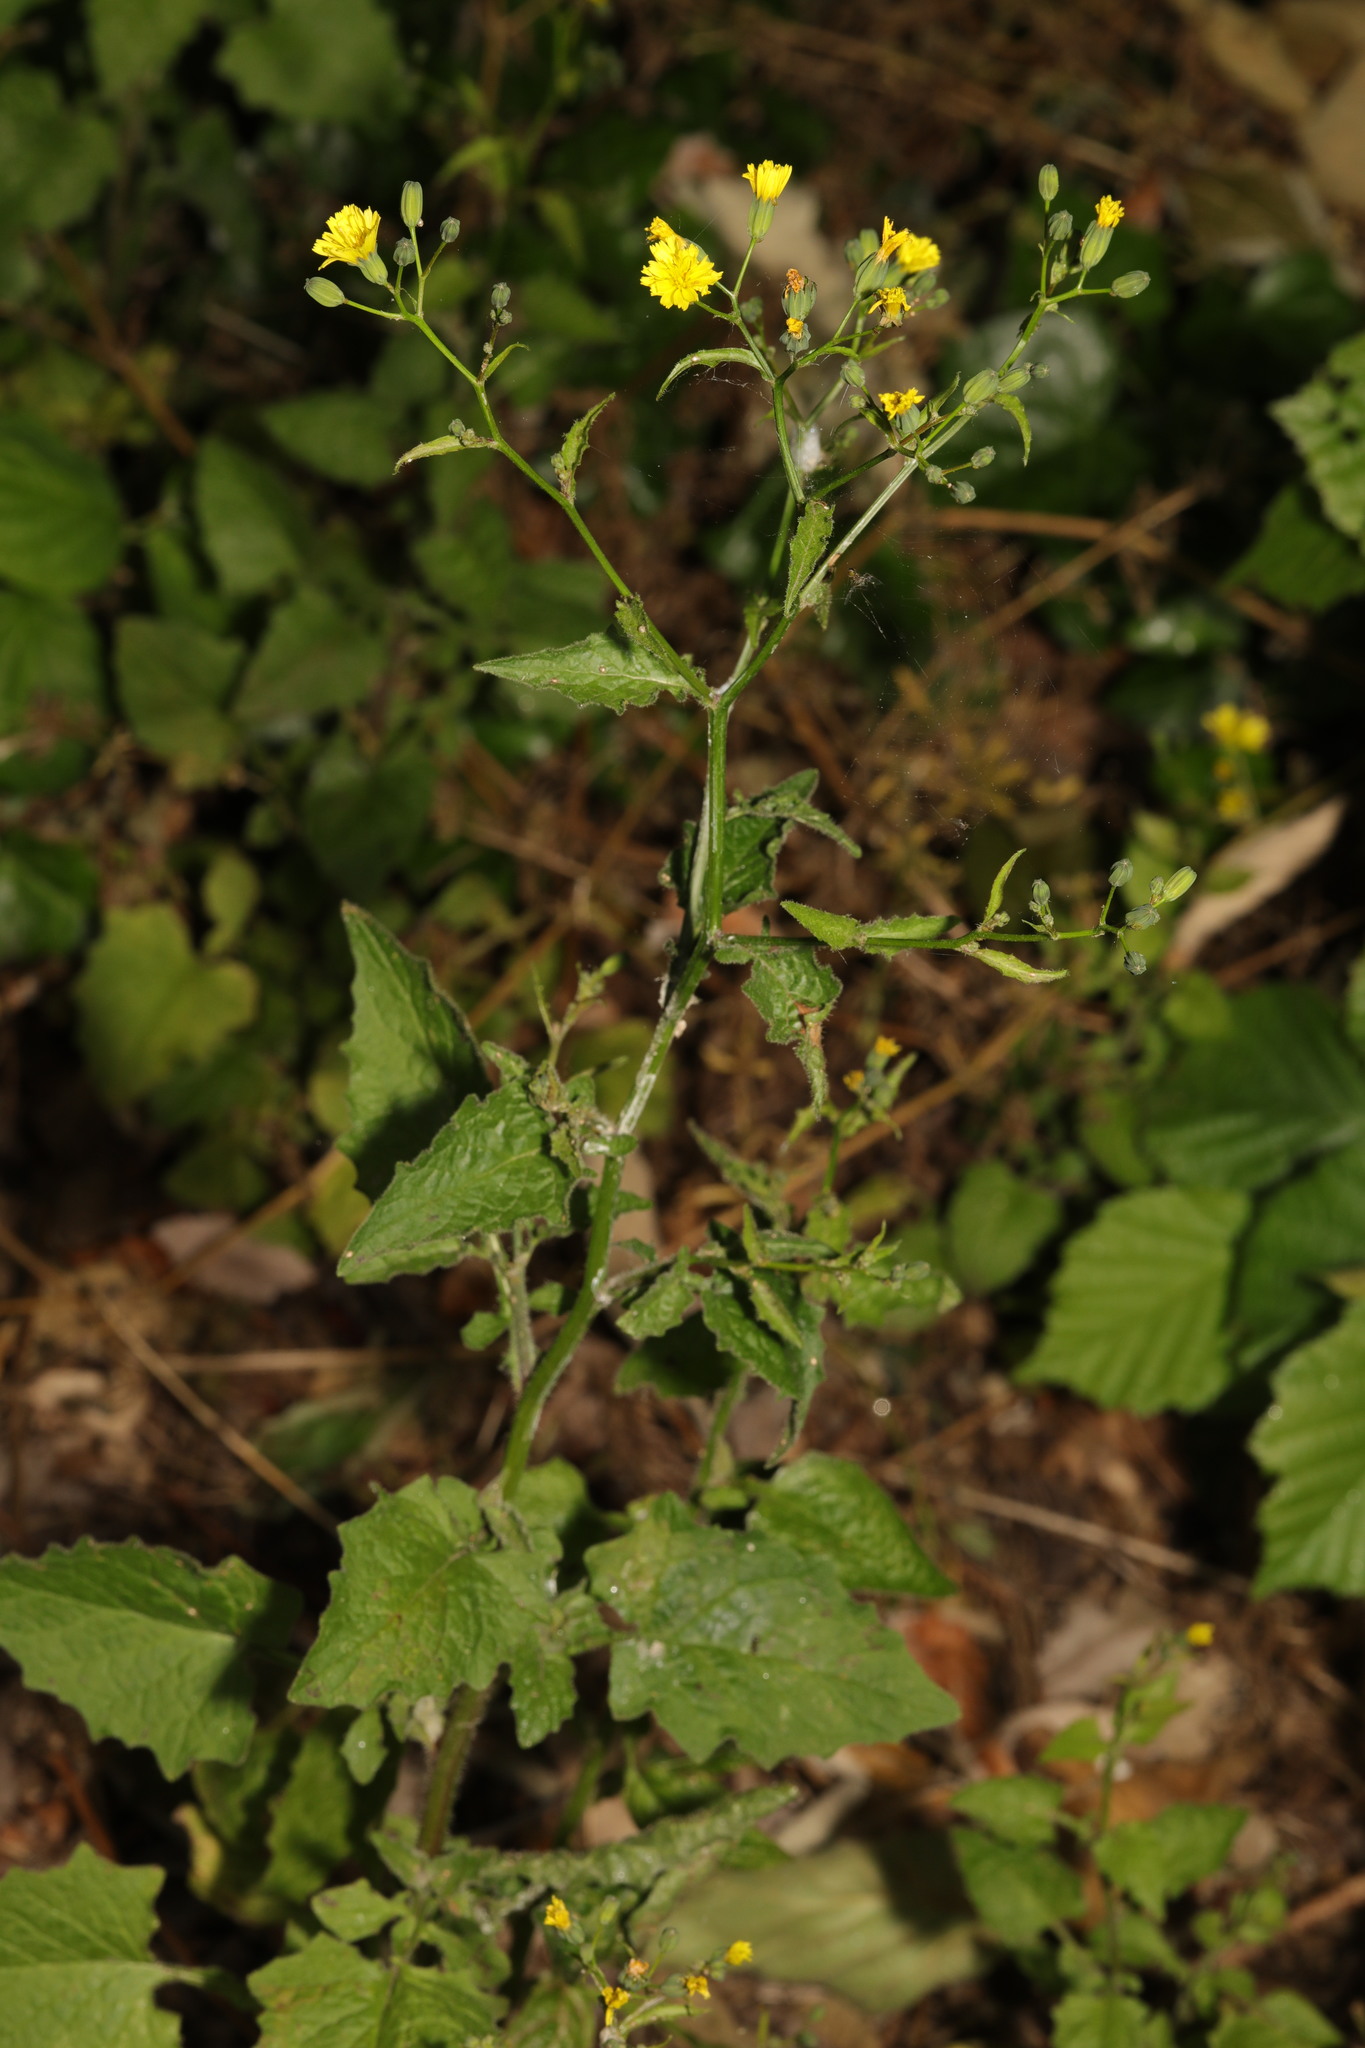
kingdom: Plantae
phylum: Tracheophyta
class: Magnoliopsida
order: Asterales
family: Asteraceae
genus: Lapsana
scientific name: Lapsana communis
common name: Nipplewort
